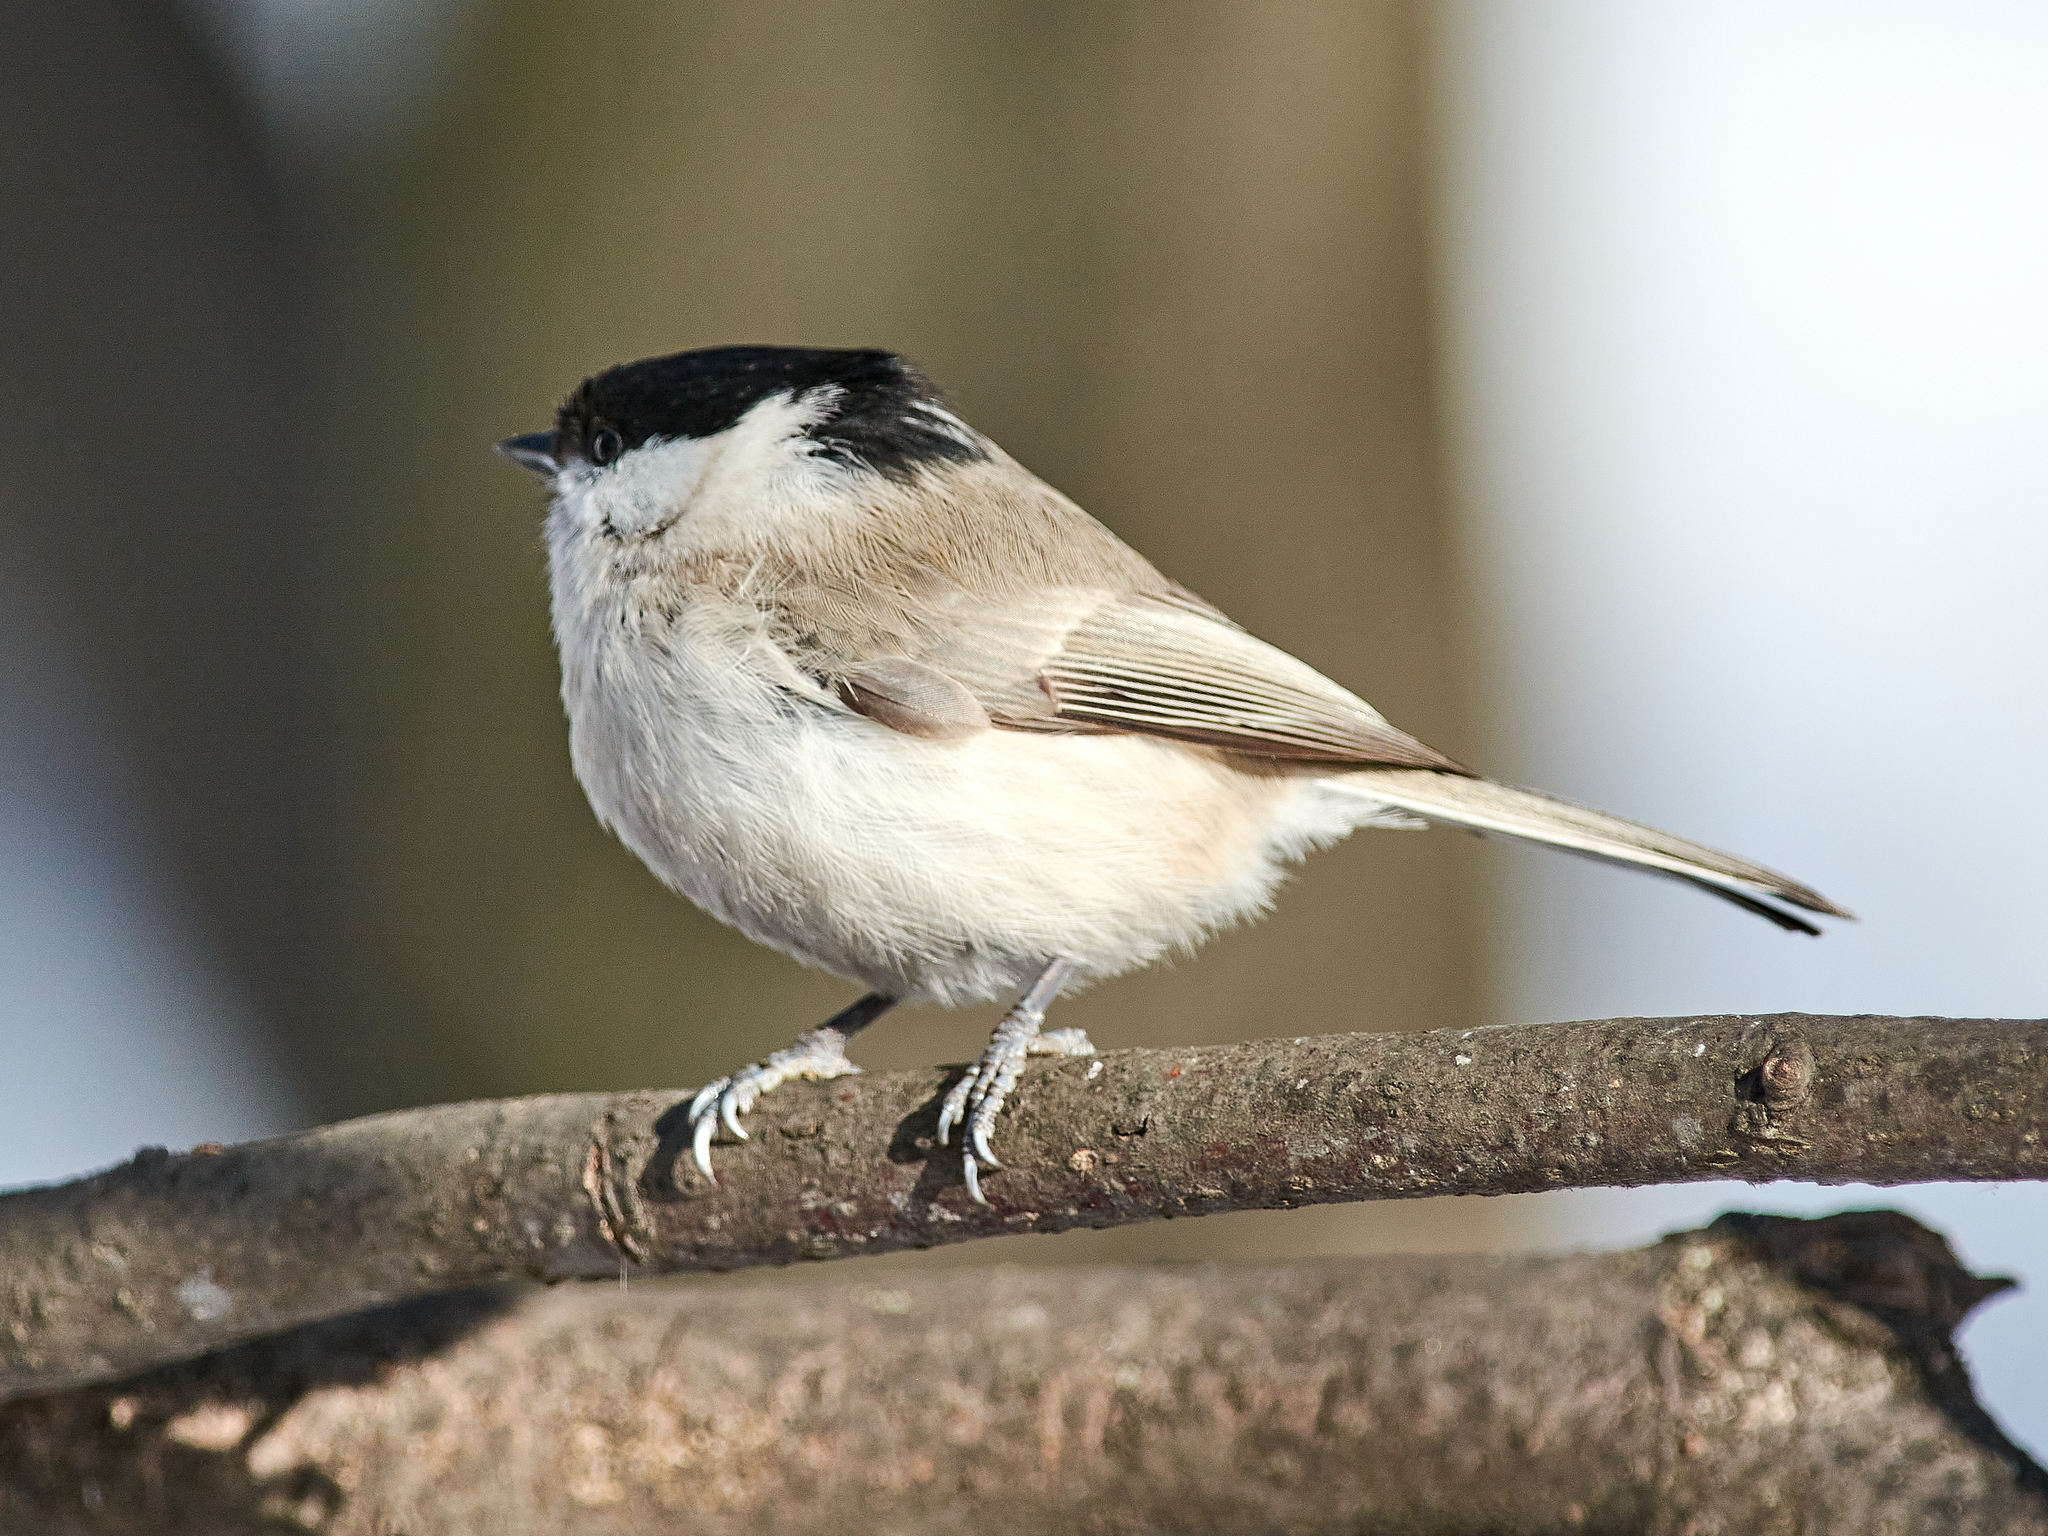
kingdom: Animalia
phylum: Chordata
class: Aves
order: Passeriformes
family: Paridae
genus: Poecile
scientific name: Poecile palustris
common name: Marsh tit
